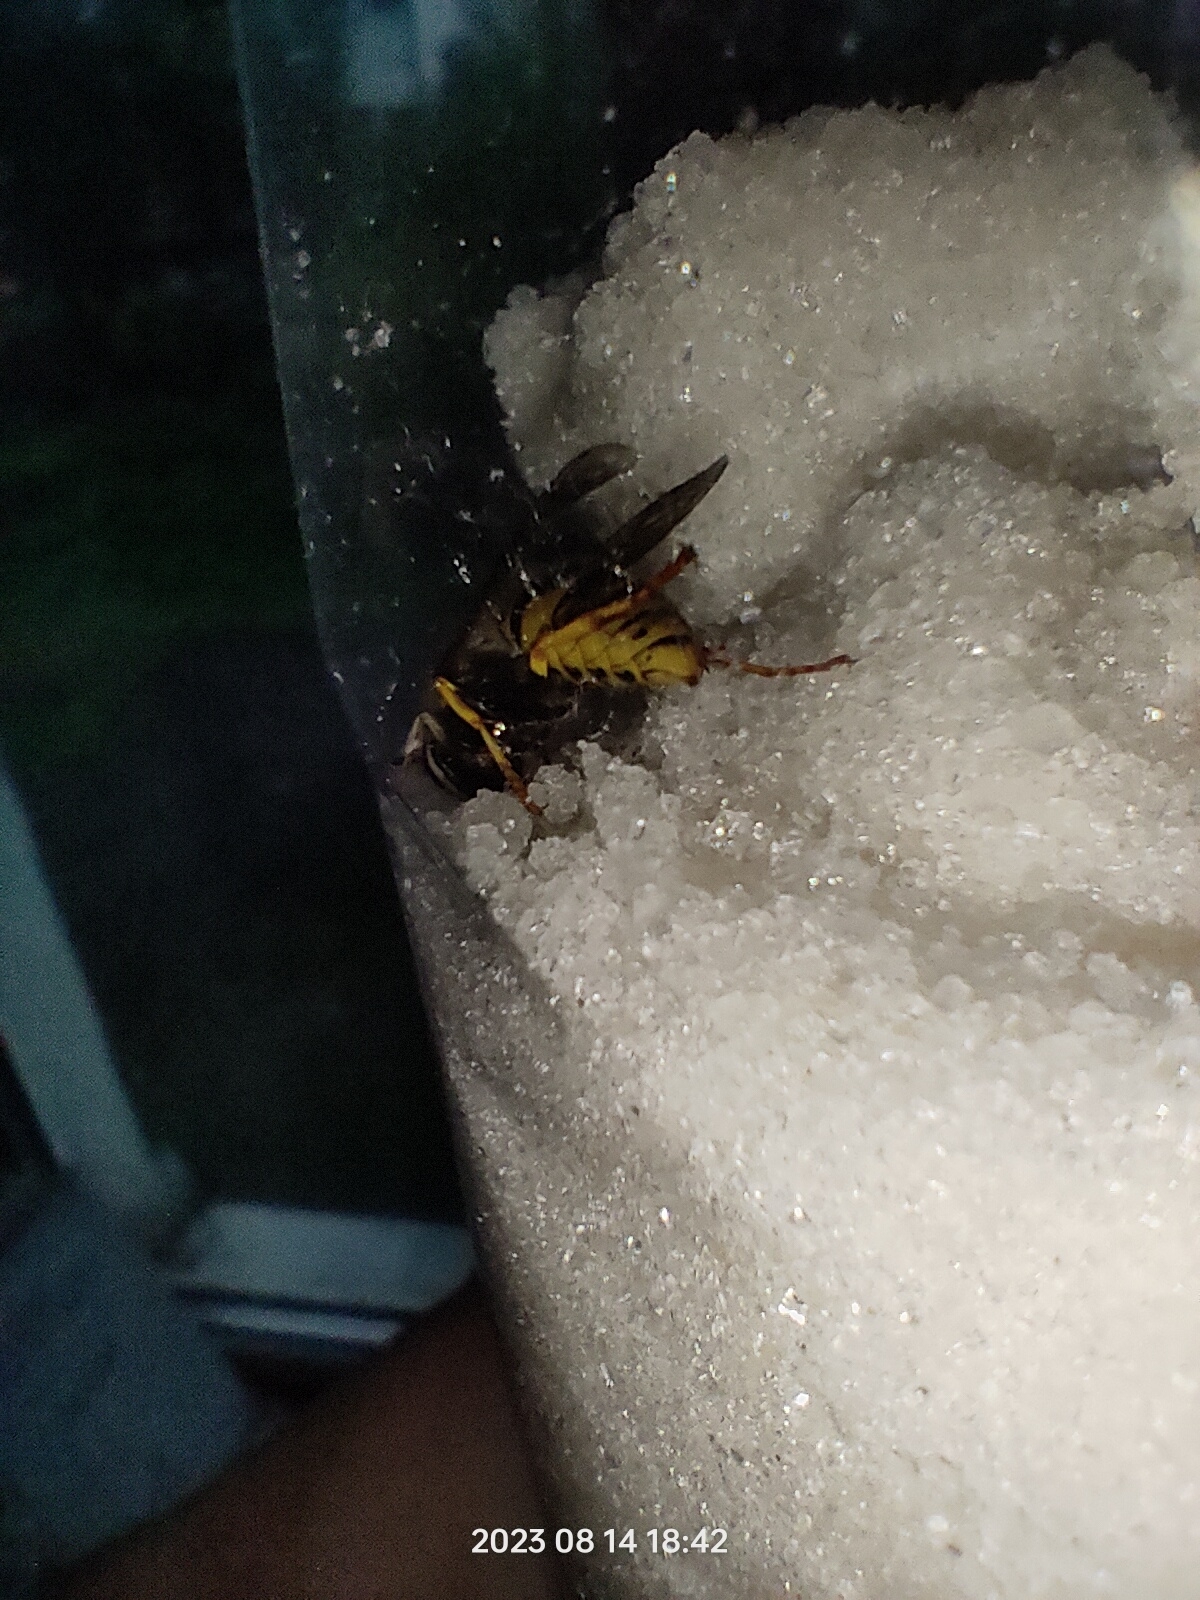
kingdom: Animalia
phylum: Arthropoda
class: Insecta
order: Hymenoptera
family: Vespidae
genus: Vespula
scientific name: Vespula germanica
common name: German wasp
